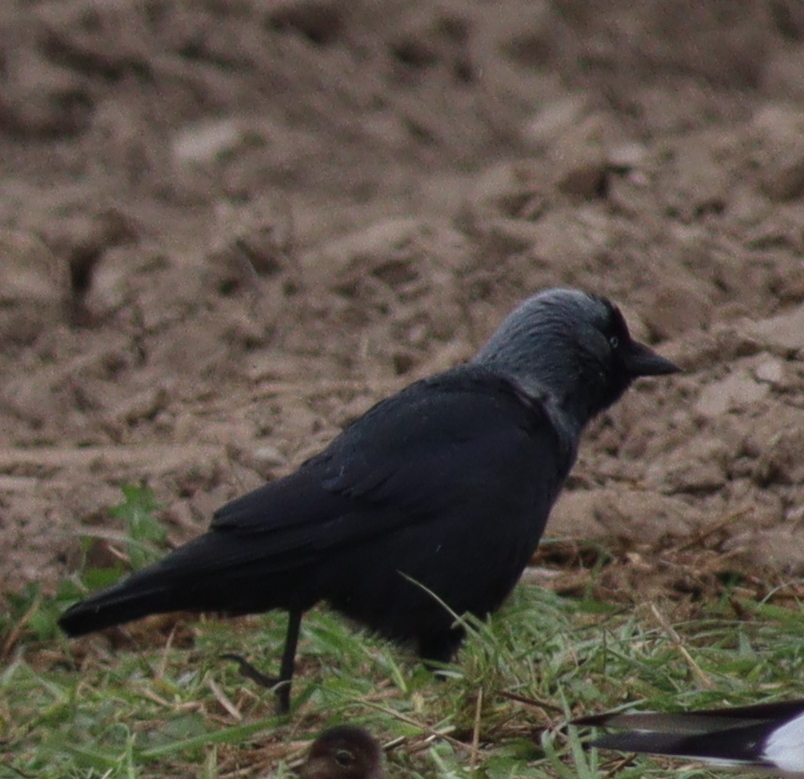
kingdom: Animalia
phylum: Chordata
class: Aves
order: Passeriformes
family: Corvidae
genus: Coloeus
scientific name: Coloeus monedula
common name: Western jackdaw
